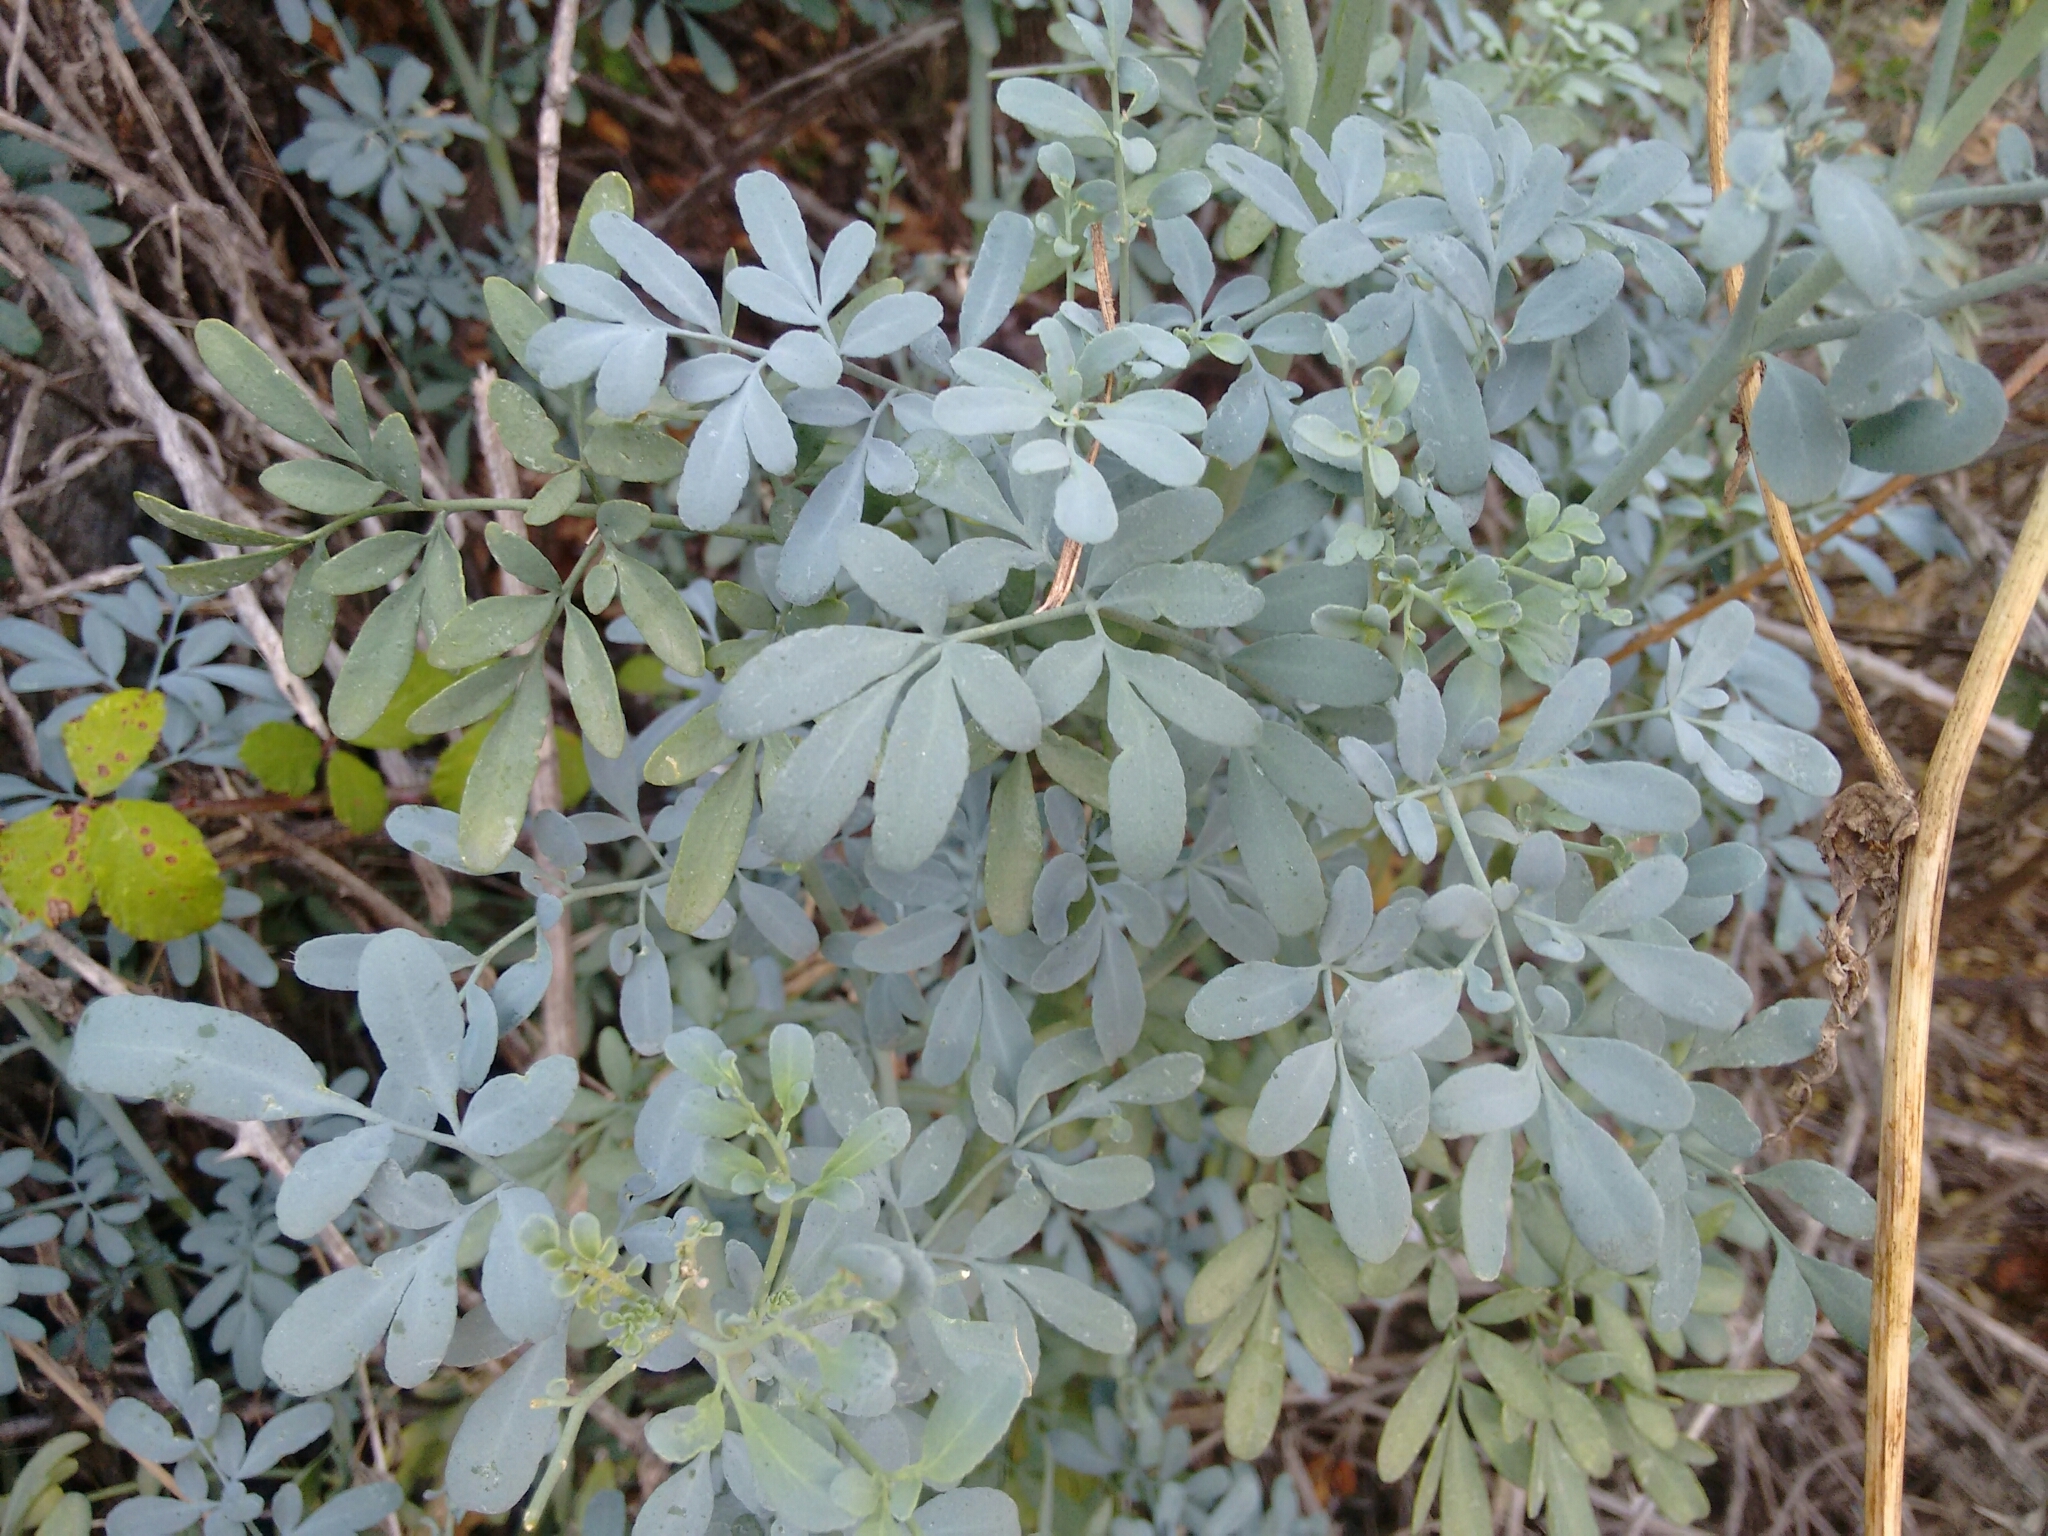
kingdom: Plantae
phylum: Tracheophyta
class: Magnoliopsida
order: Sapindales
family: Rutaceae
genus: Ruta
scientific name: Ruta chalepensis
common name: Fringed rue
